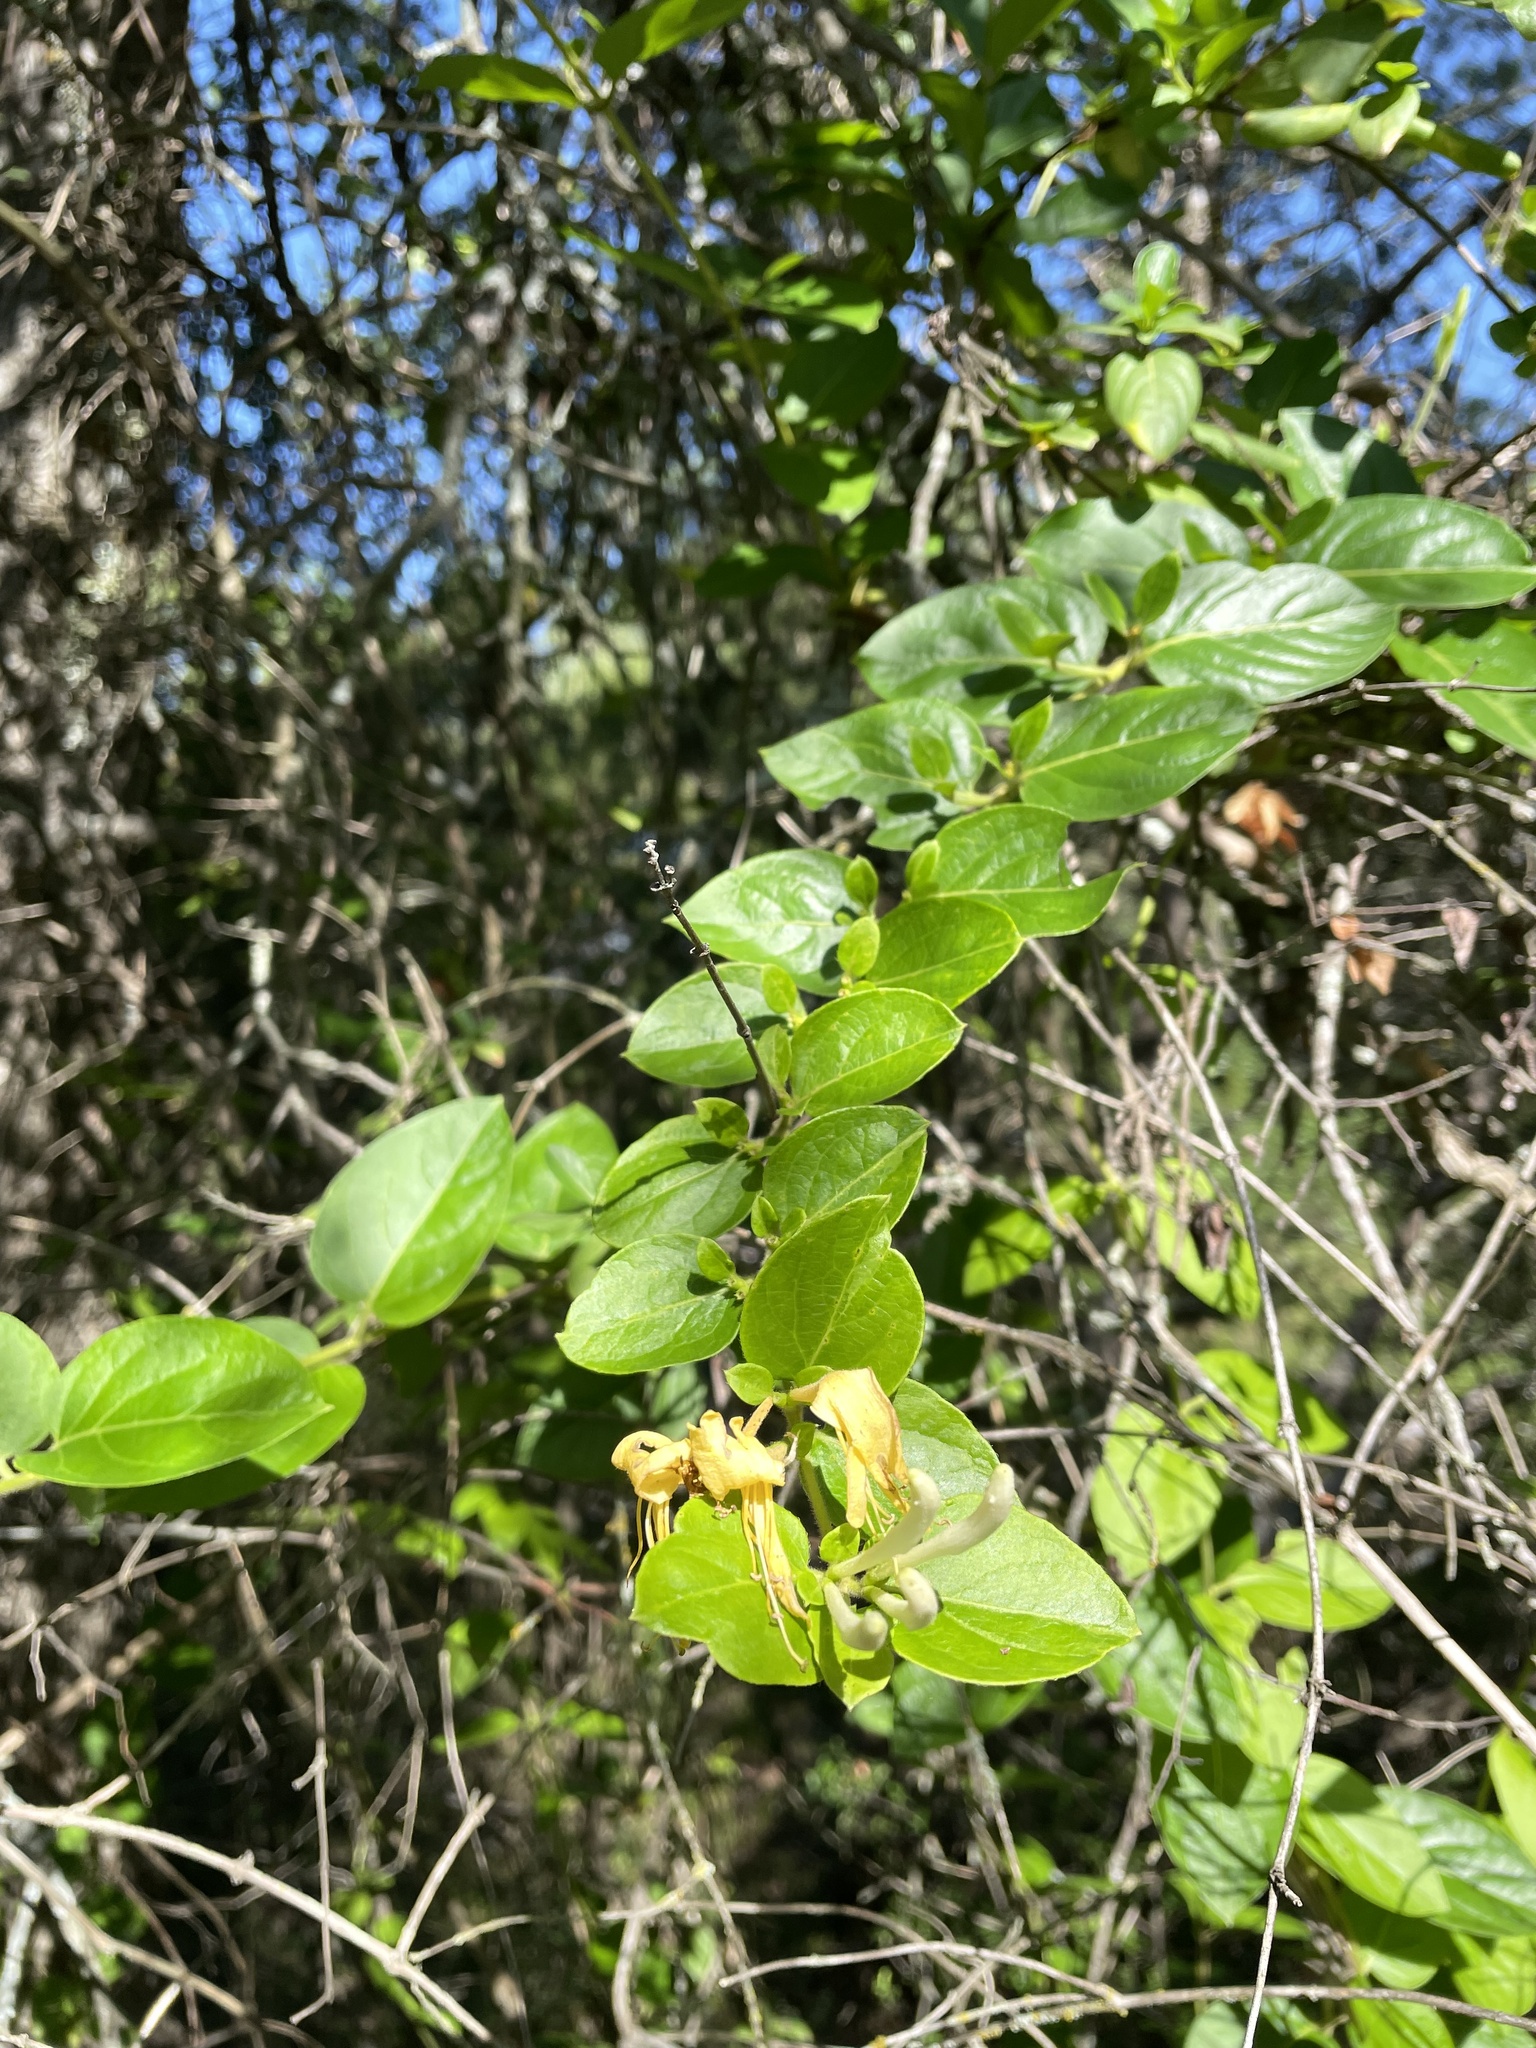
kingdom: Plantae
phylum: Tracheophyta
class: Magnoliopsida
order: Dipsacales
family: Caprifoliaceae
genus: Lonicera
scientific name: Lonicera japonica
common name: Japanese honeysuckle
